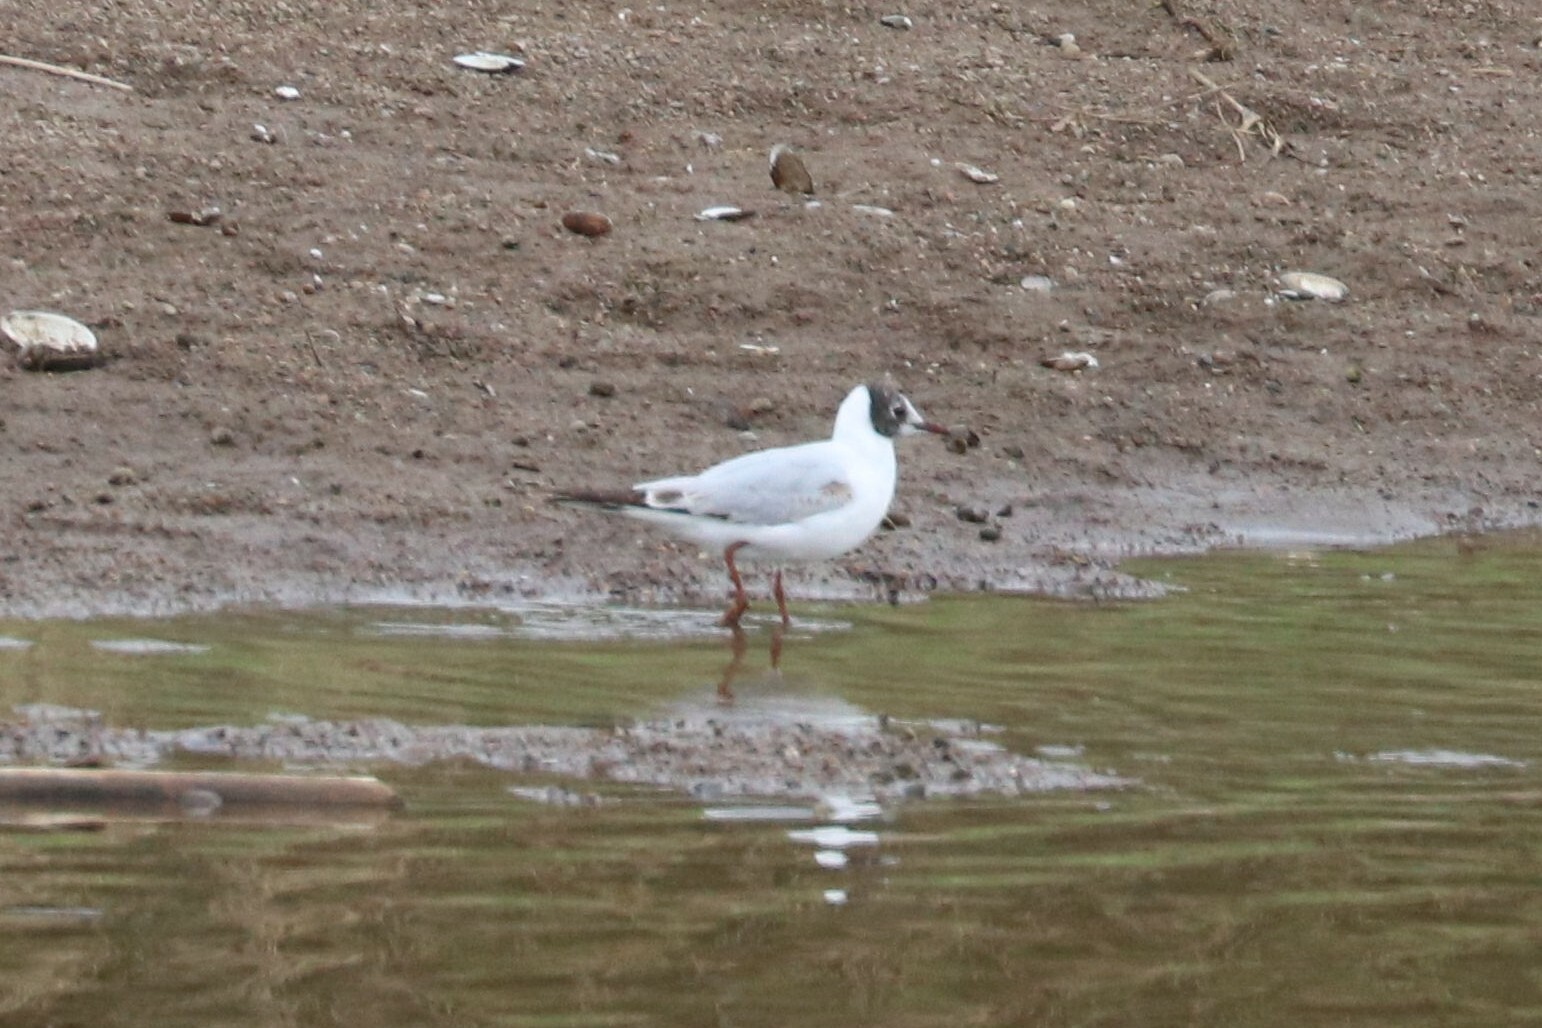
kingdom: Animalia
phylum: Chordata
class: Aves
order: Charadriiformes
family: Laridae
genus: Chroicocephalus
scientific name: Chroicocephalus ridibundus
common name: Black-headed gull
